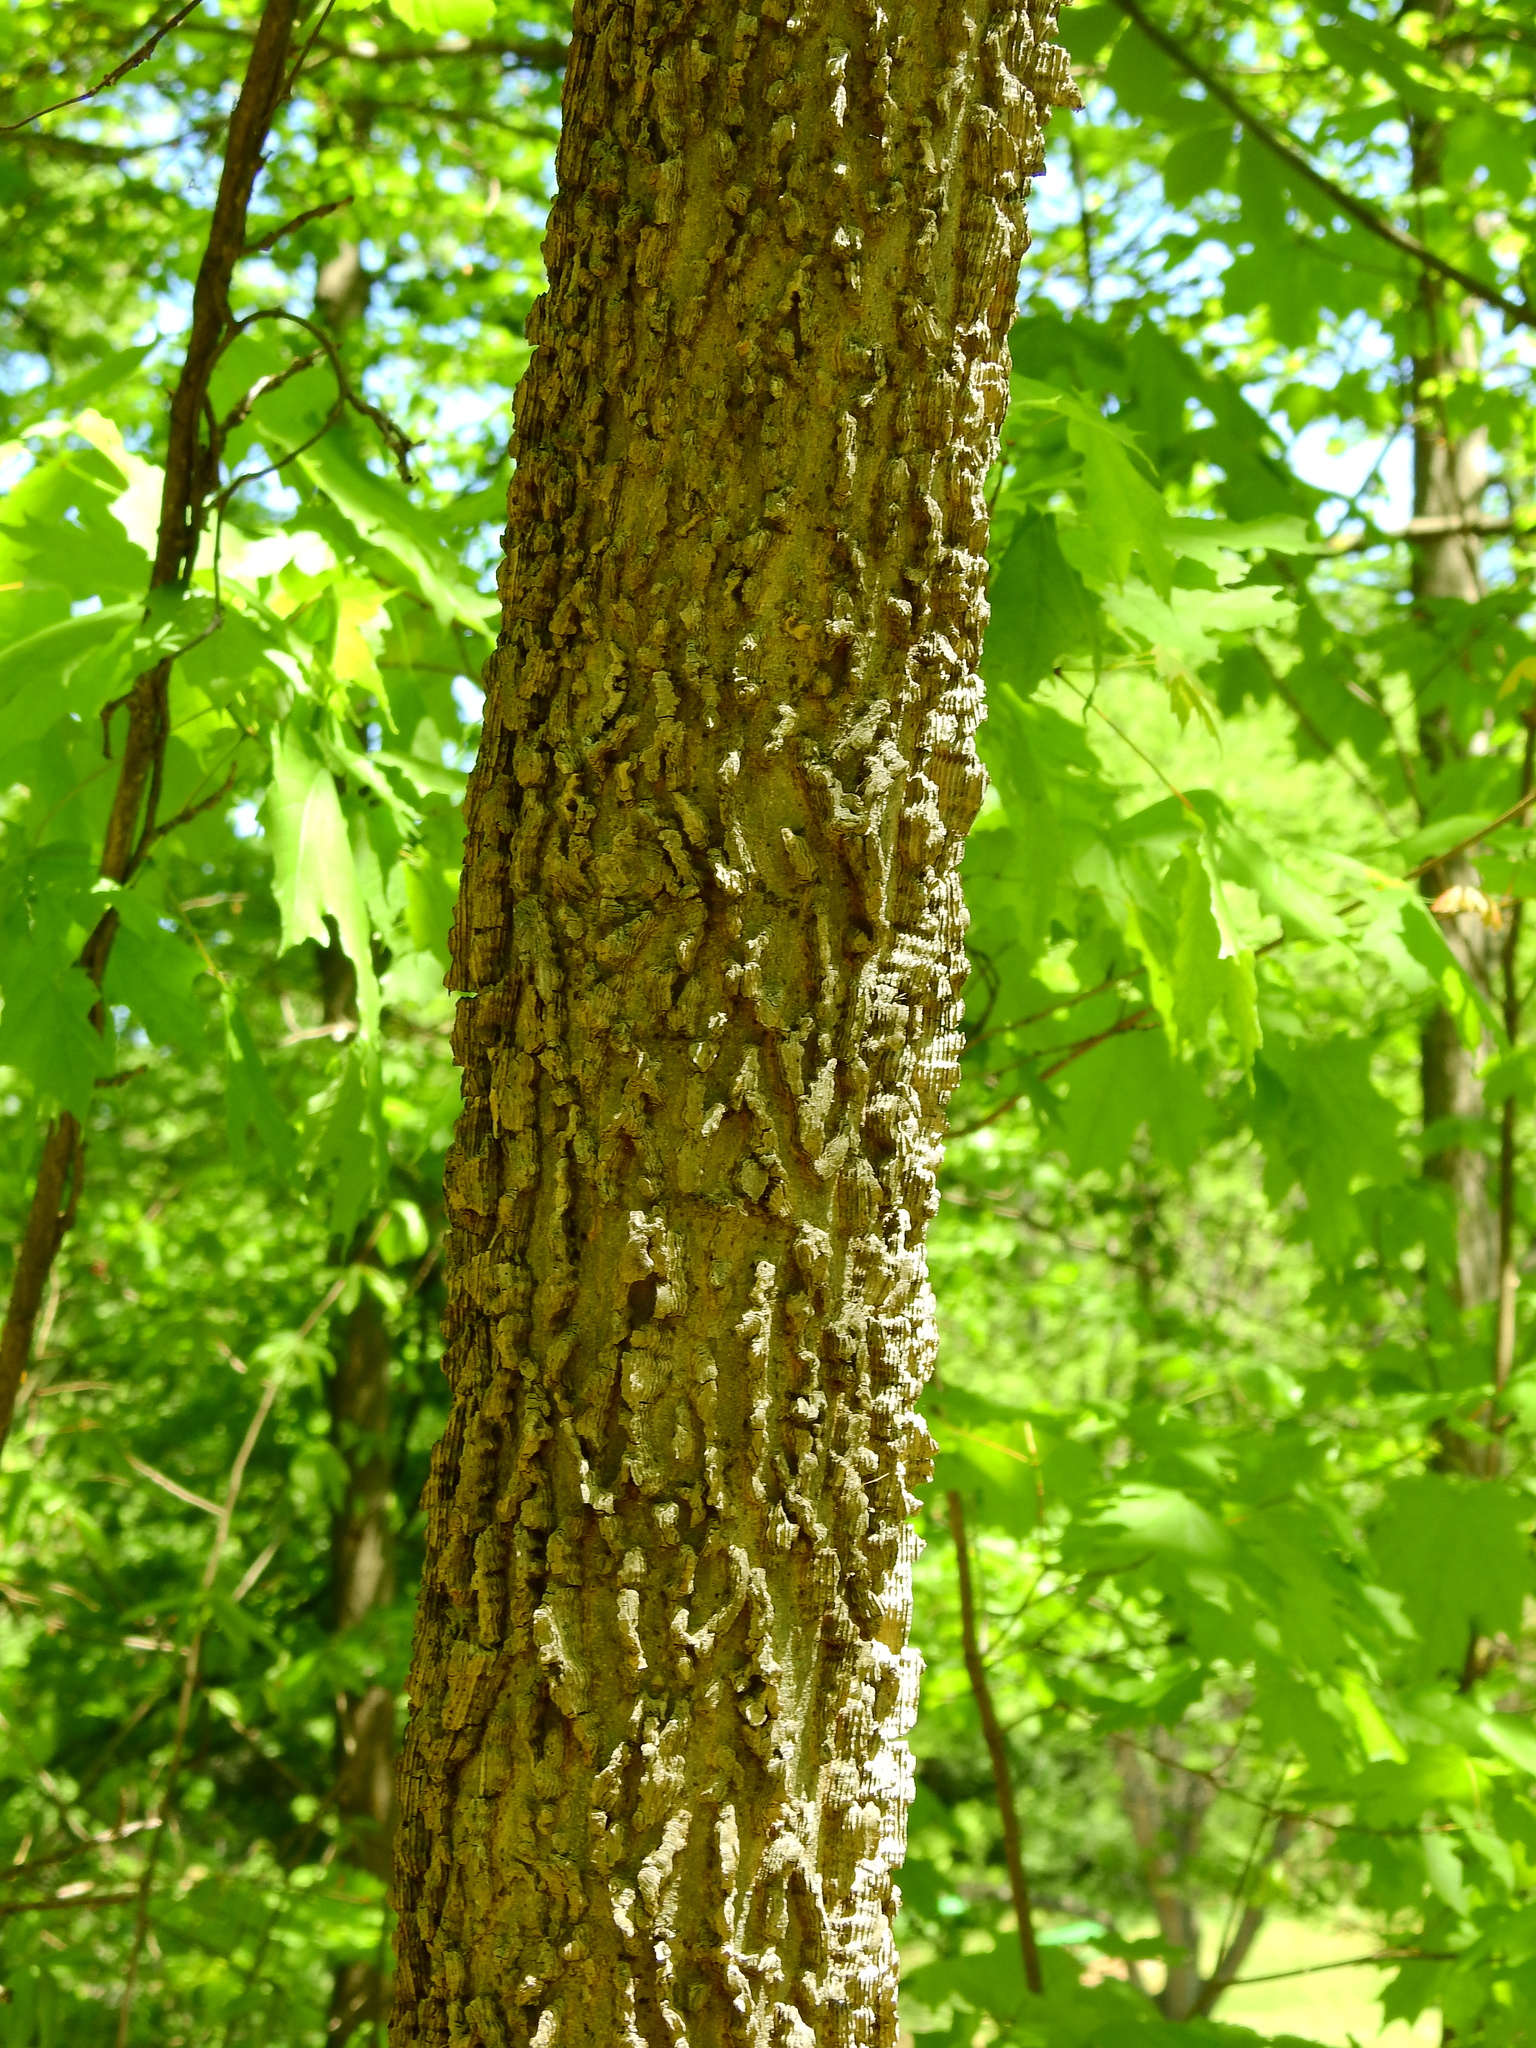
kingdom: Plantae
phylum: Tracheophyta
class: Magnoliopsida
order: Rosales
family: Cannabaceae
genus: Celtis
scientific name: Celtis occidentalis
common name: Common hackberry
